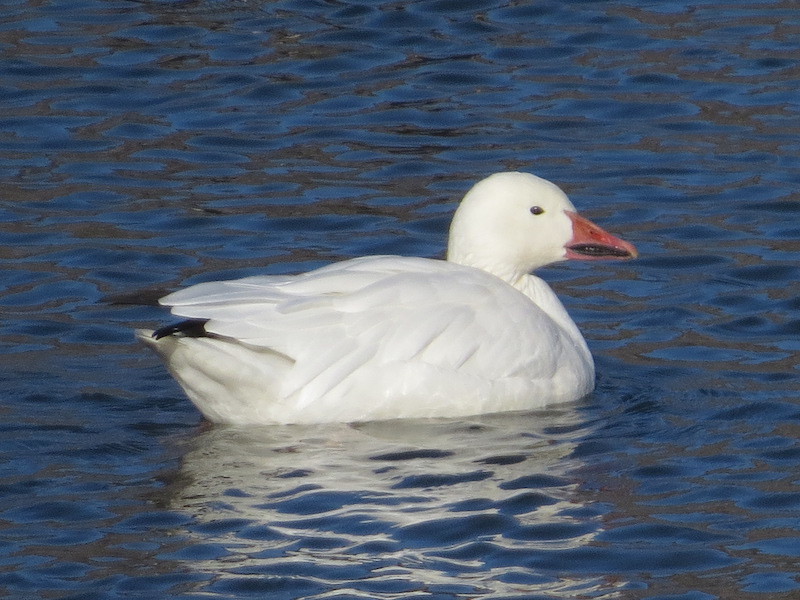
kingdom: Animalia
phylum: Chordata
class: Aves
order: Anseriformes
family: Anatidae
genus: Anser
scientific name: Anser caerulescens
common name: Snow goose
